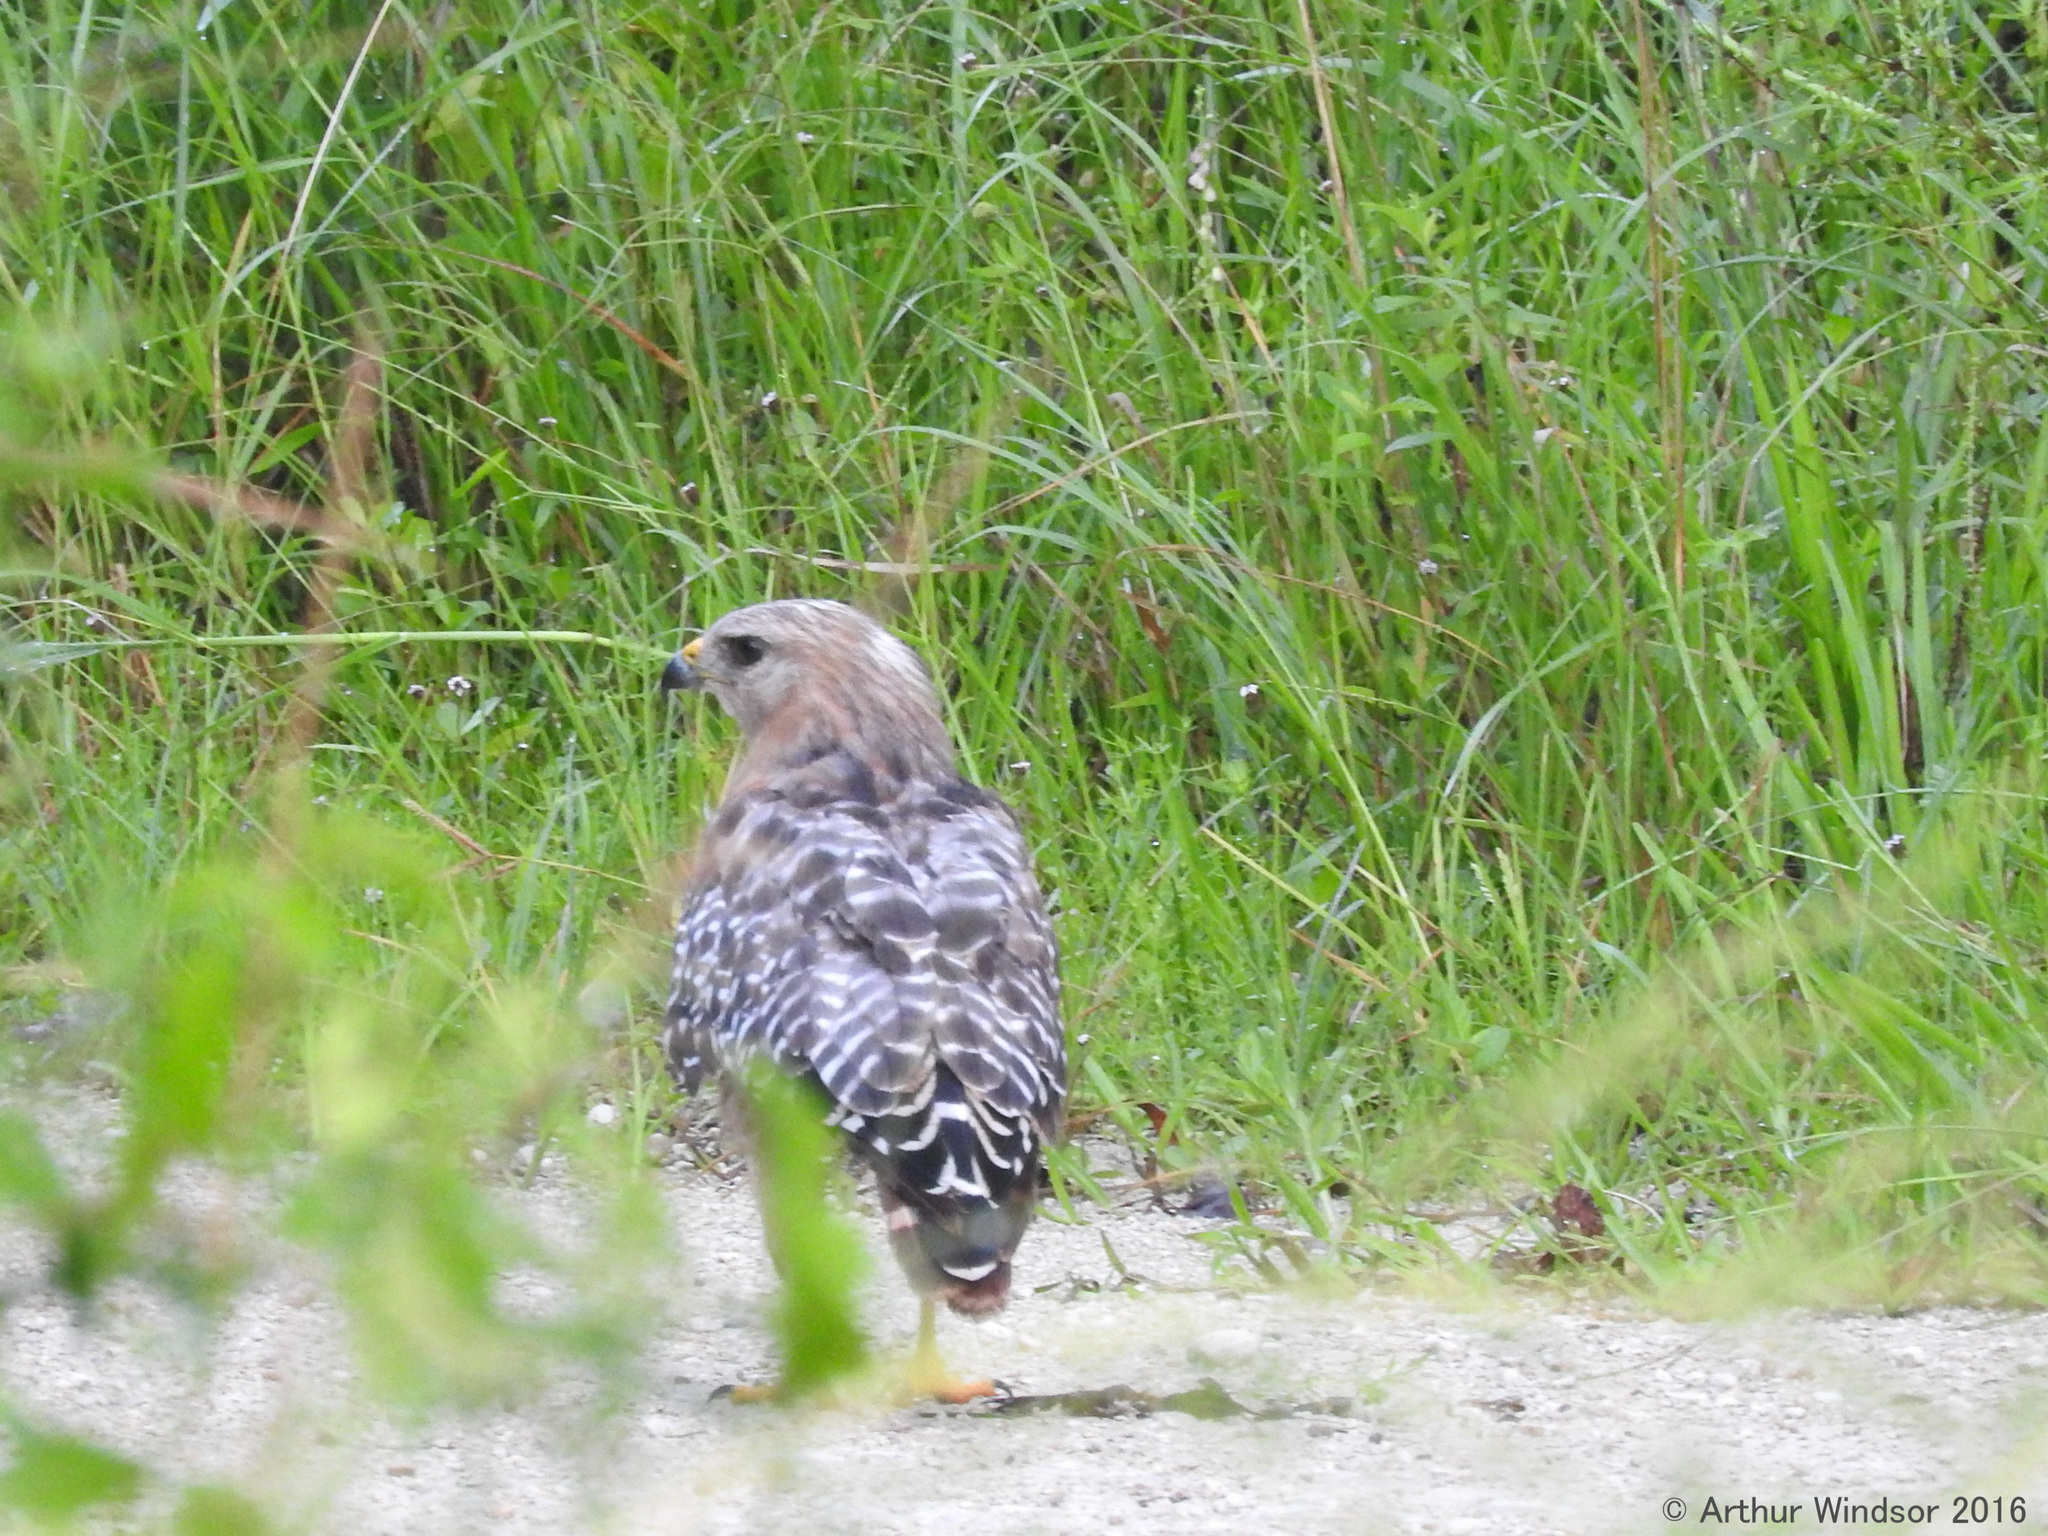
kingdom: Animalia
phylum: Chordata
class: Aves
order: Accipitriformes
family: Accipitridae
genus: Buteo
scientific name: Buteo lineatus
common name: Red-shouldered hawk
